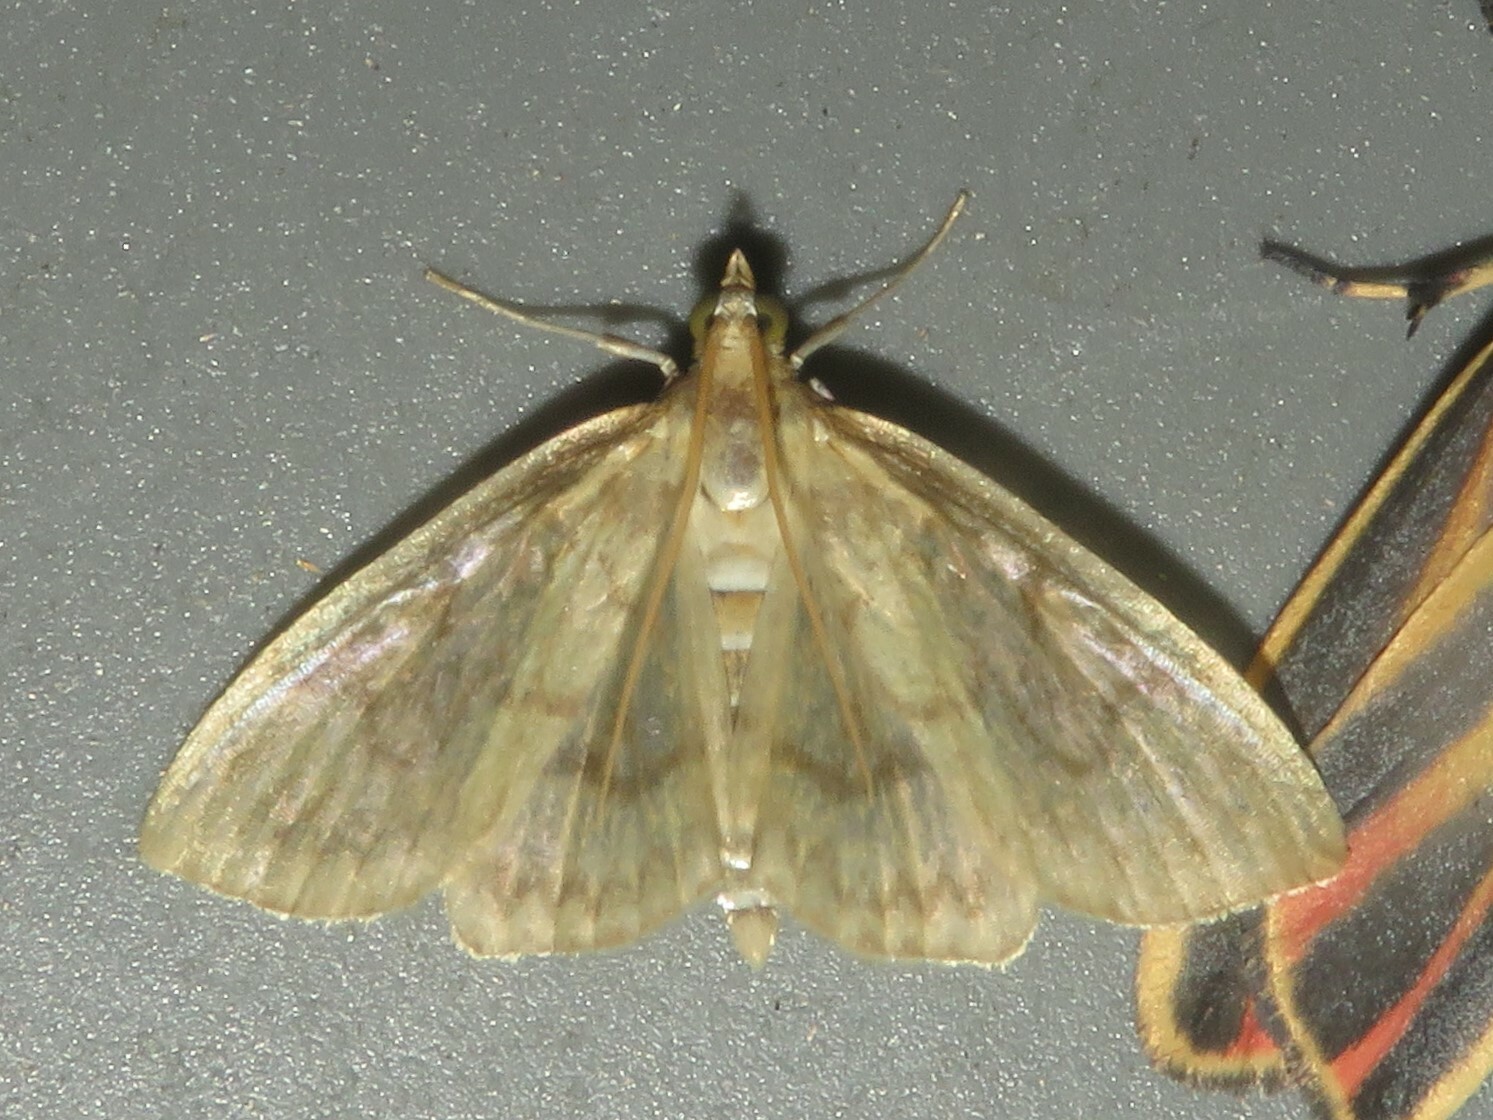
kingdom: Animalia
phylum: Arthropoda
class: Insecta
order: Lepidoptera
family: Crambidae
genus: Crocidophora
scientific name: Crocidophora serratissimalis
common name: Saw-toothed crocidophora moth
